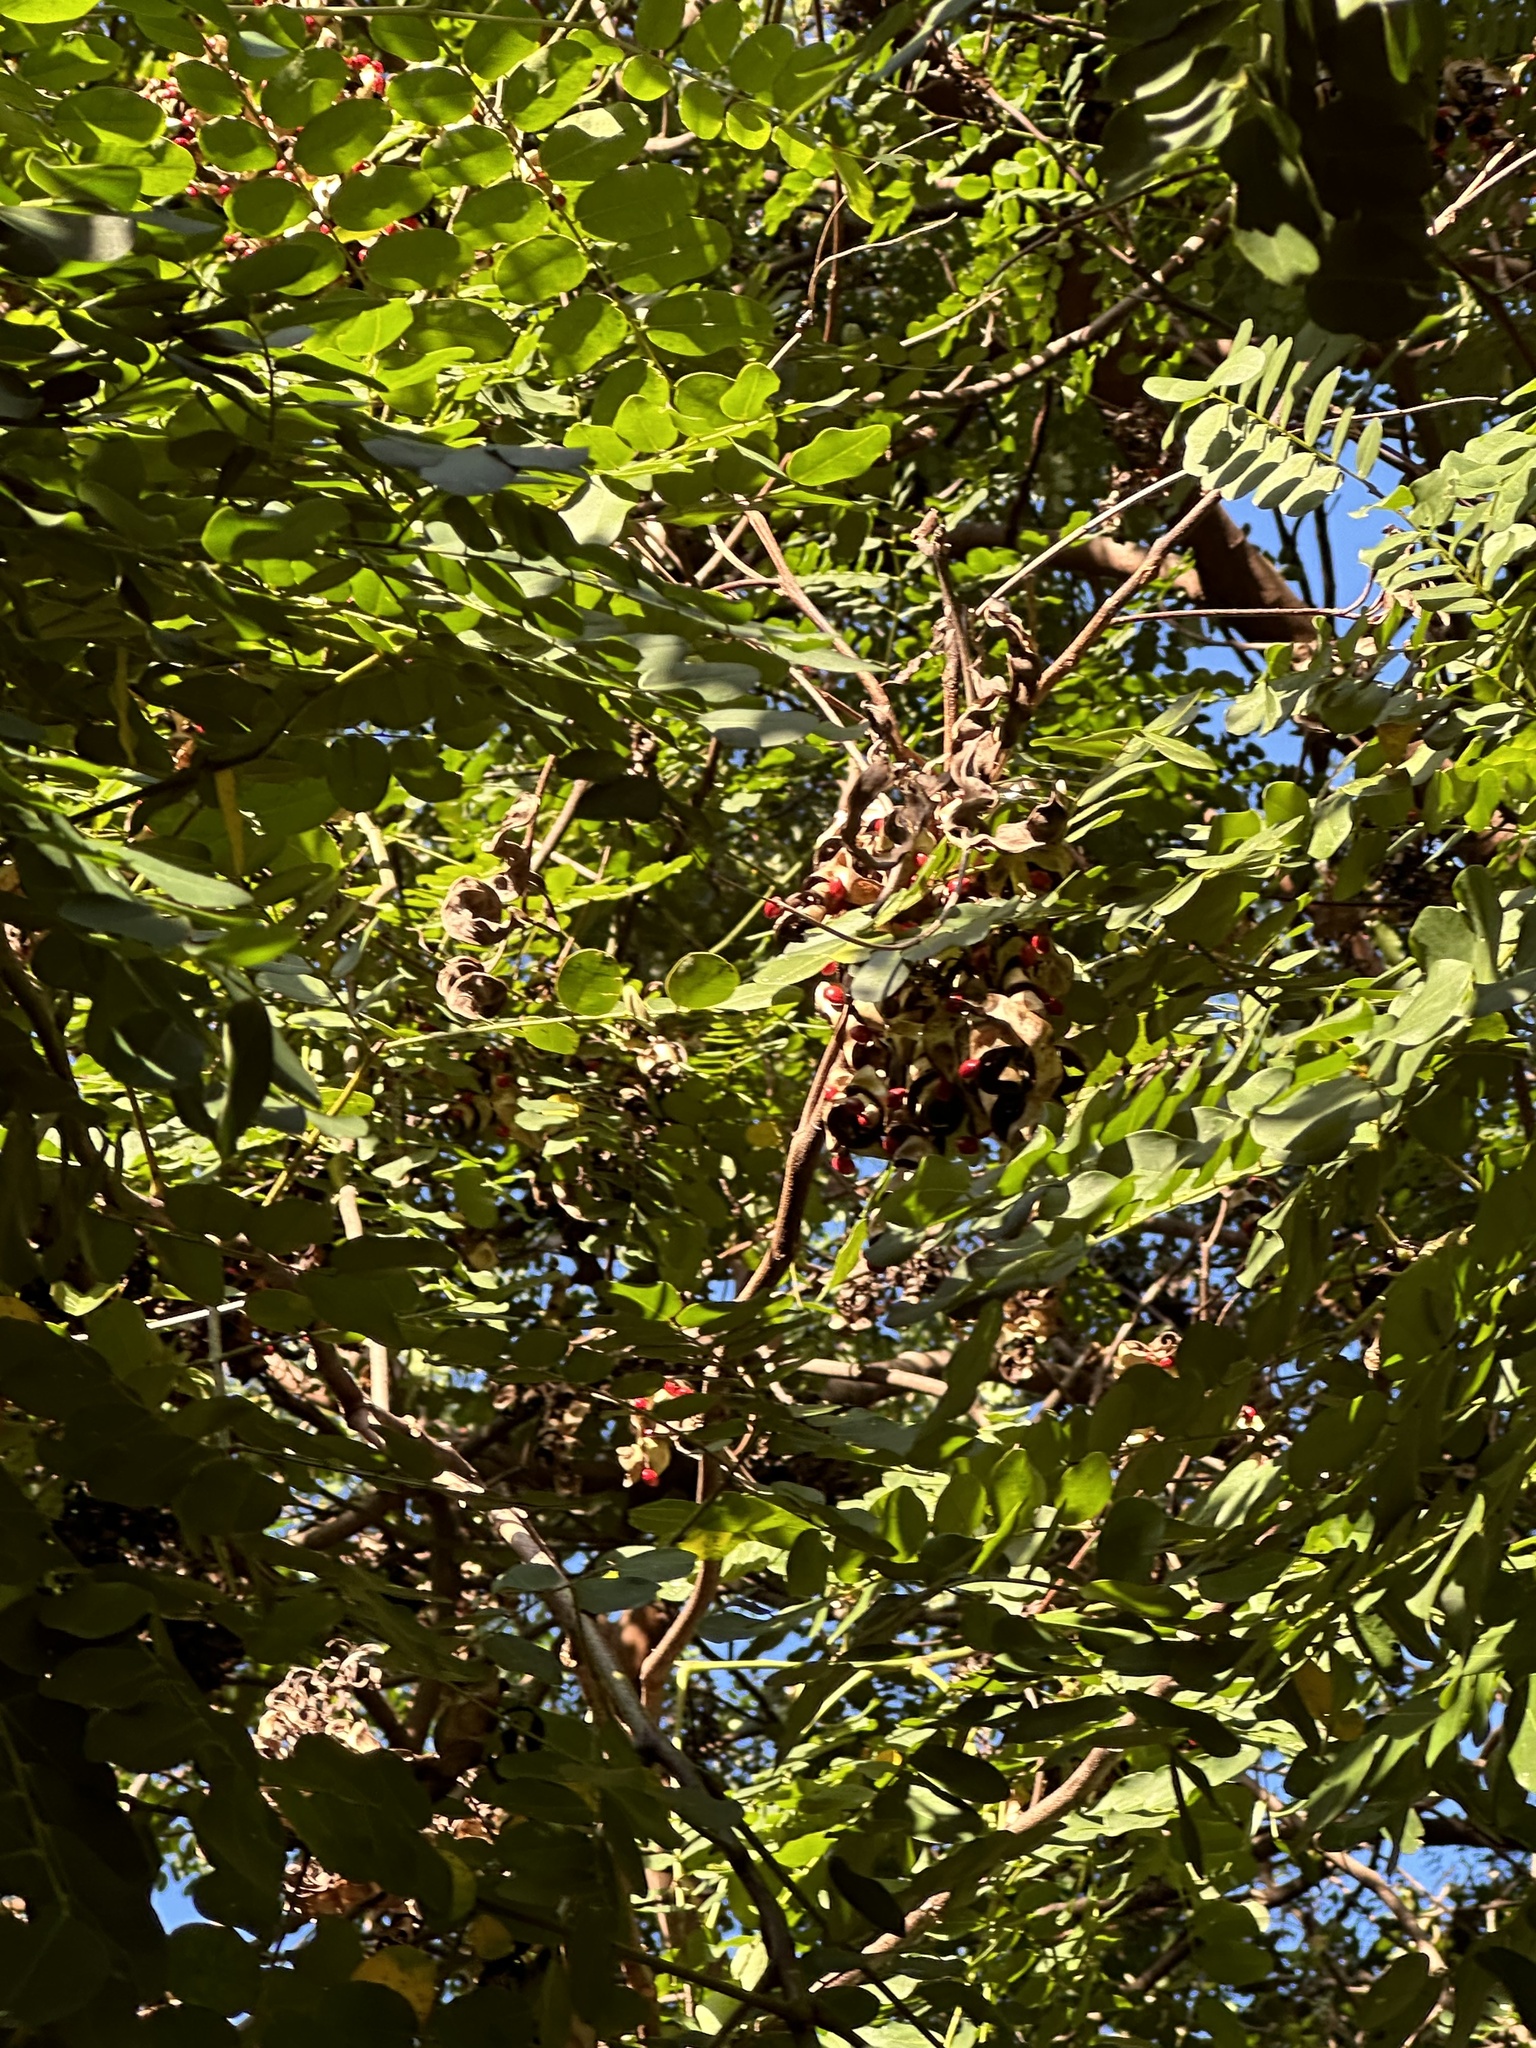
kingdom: Plantae
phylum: Tracheophyta
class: Magnoliopsida
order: Fabales
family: Fabaceae
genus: Abrus
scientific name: Abrus precatorius
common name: Rosarypea
